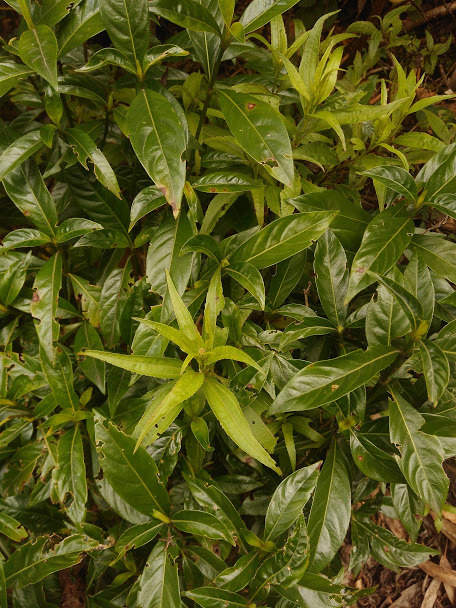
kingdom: Plantae
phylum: Tracheophyta
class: Magnoliopsida
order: Gentianales
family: Rubiaceae
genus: Palicourea
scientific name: Palicourea boqueronensis
